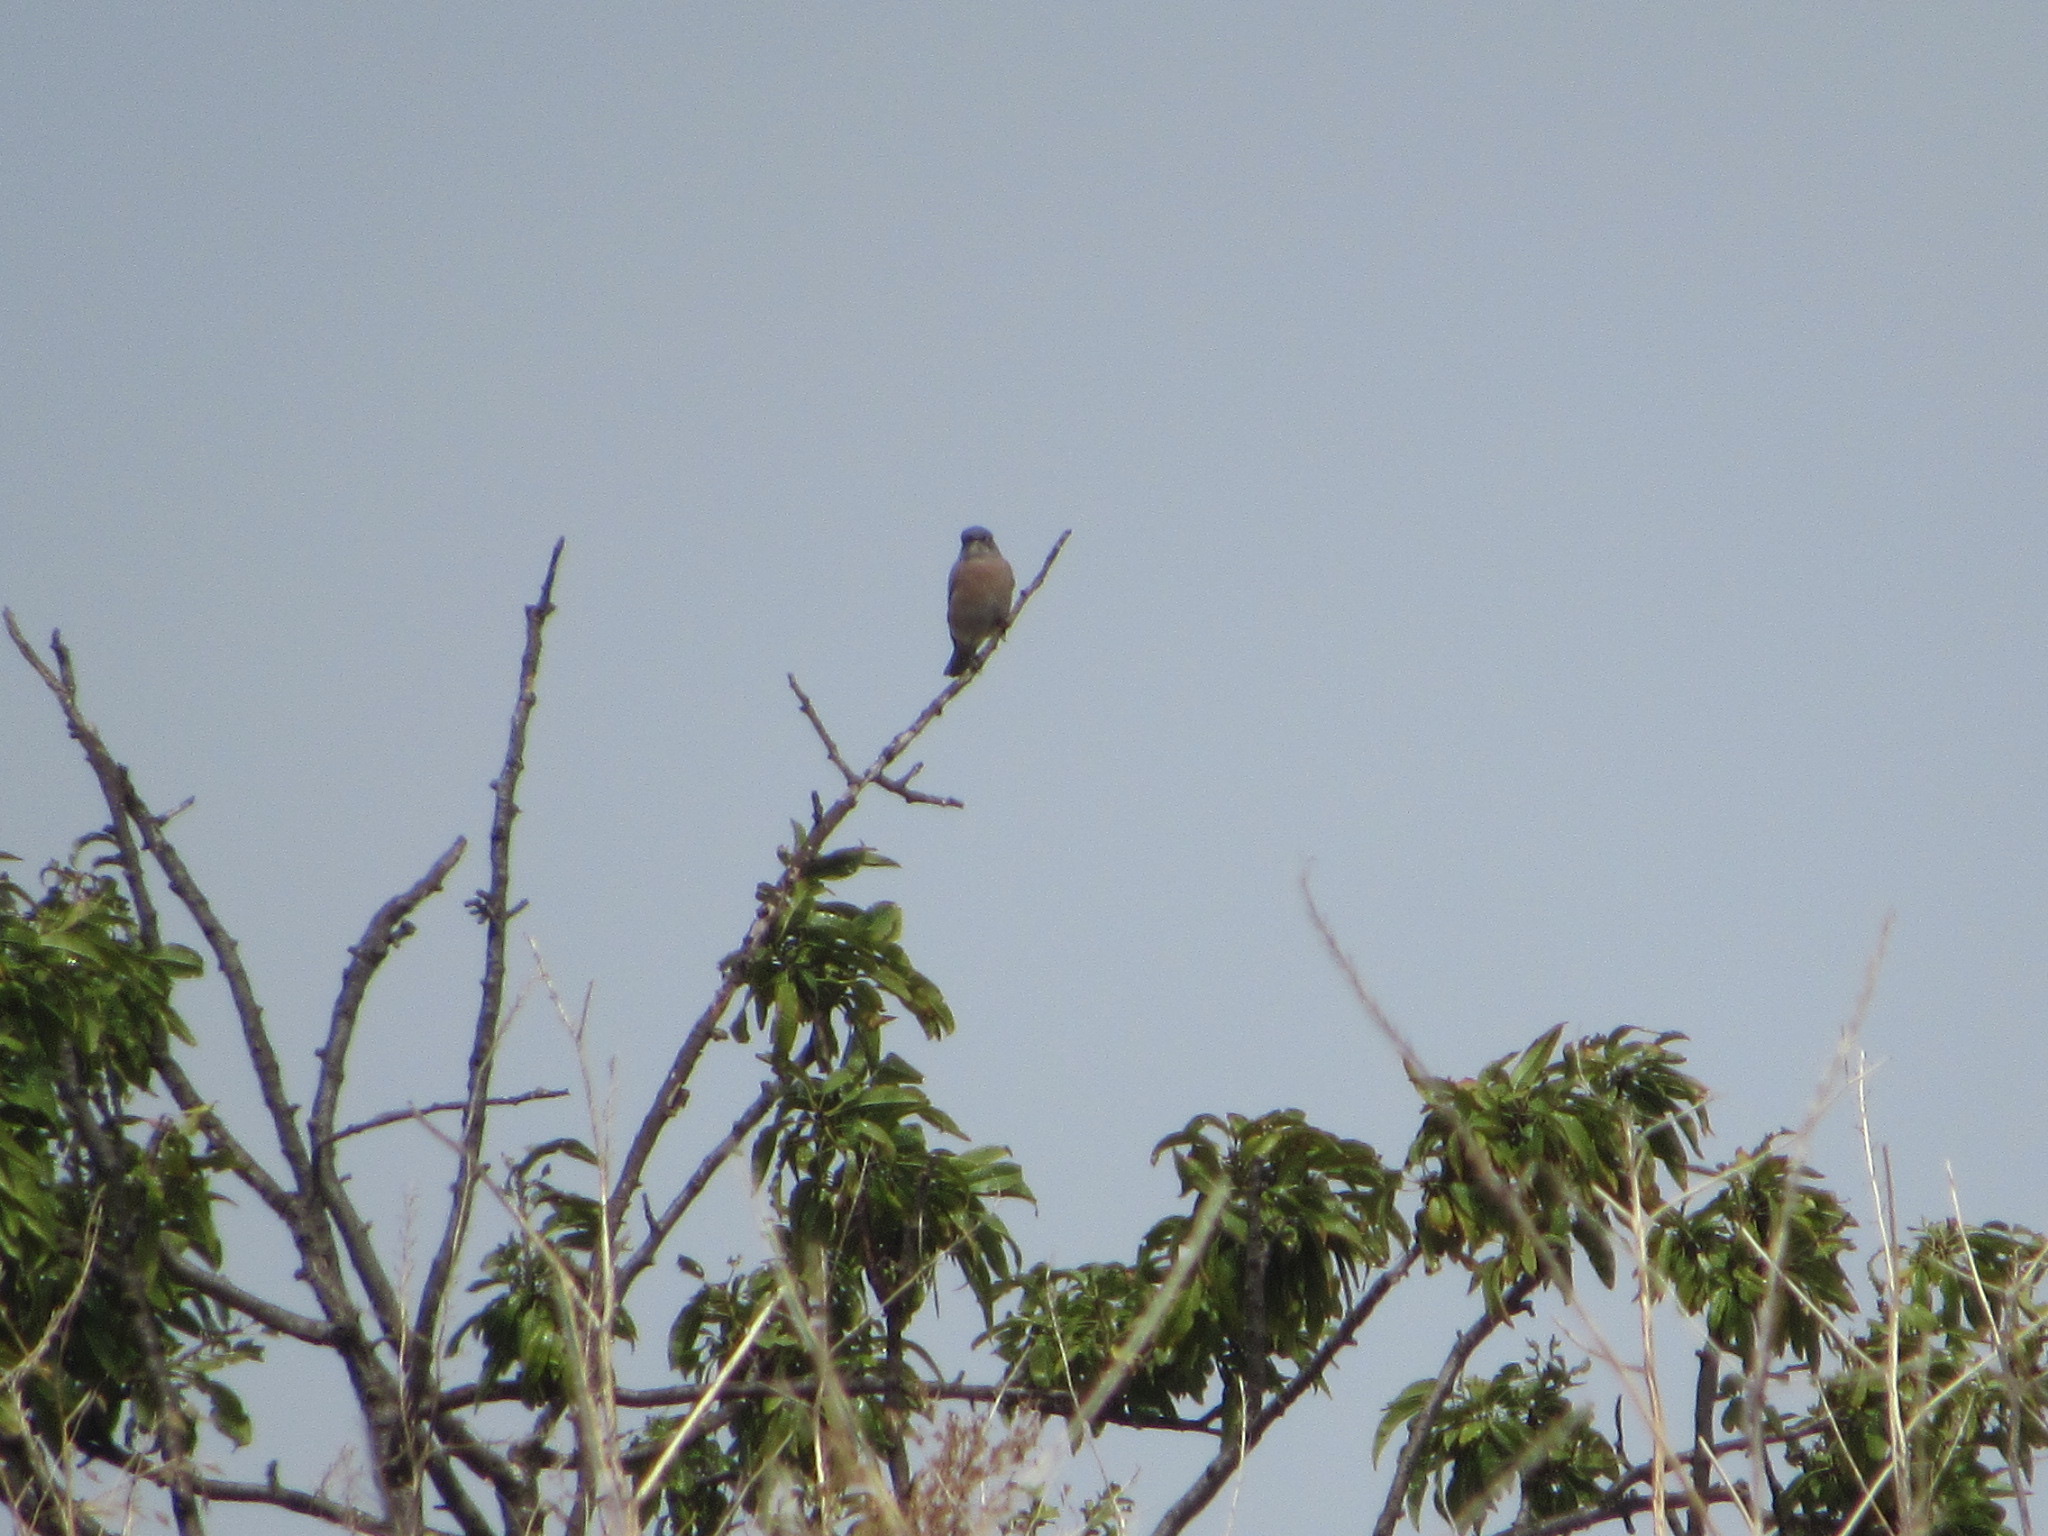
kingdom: Animalia
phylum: Chordata
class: Aves
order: Passeriformes
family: Turdidae
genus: Sialia
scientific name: Sialia mexicana
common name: Western bluebird
